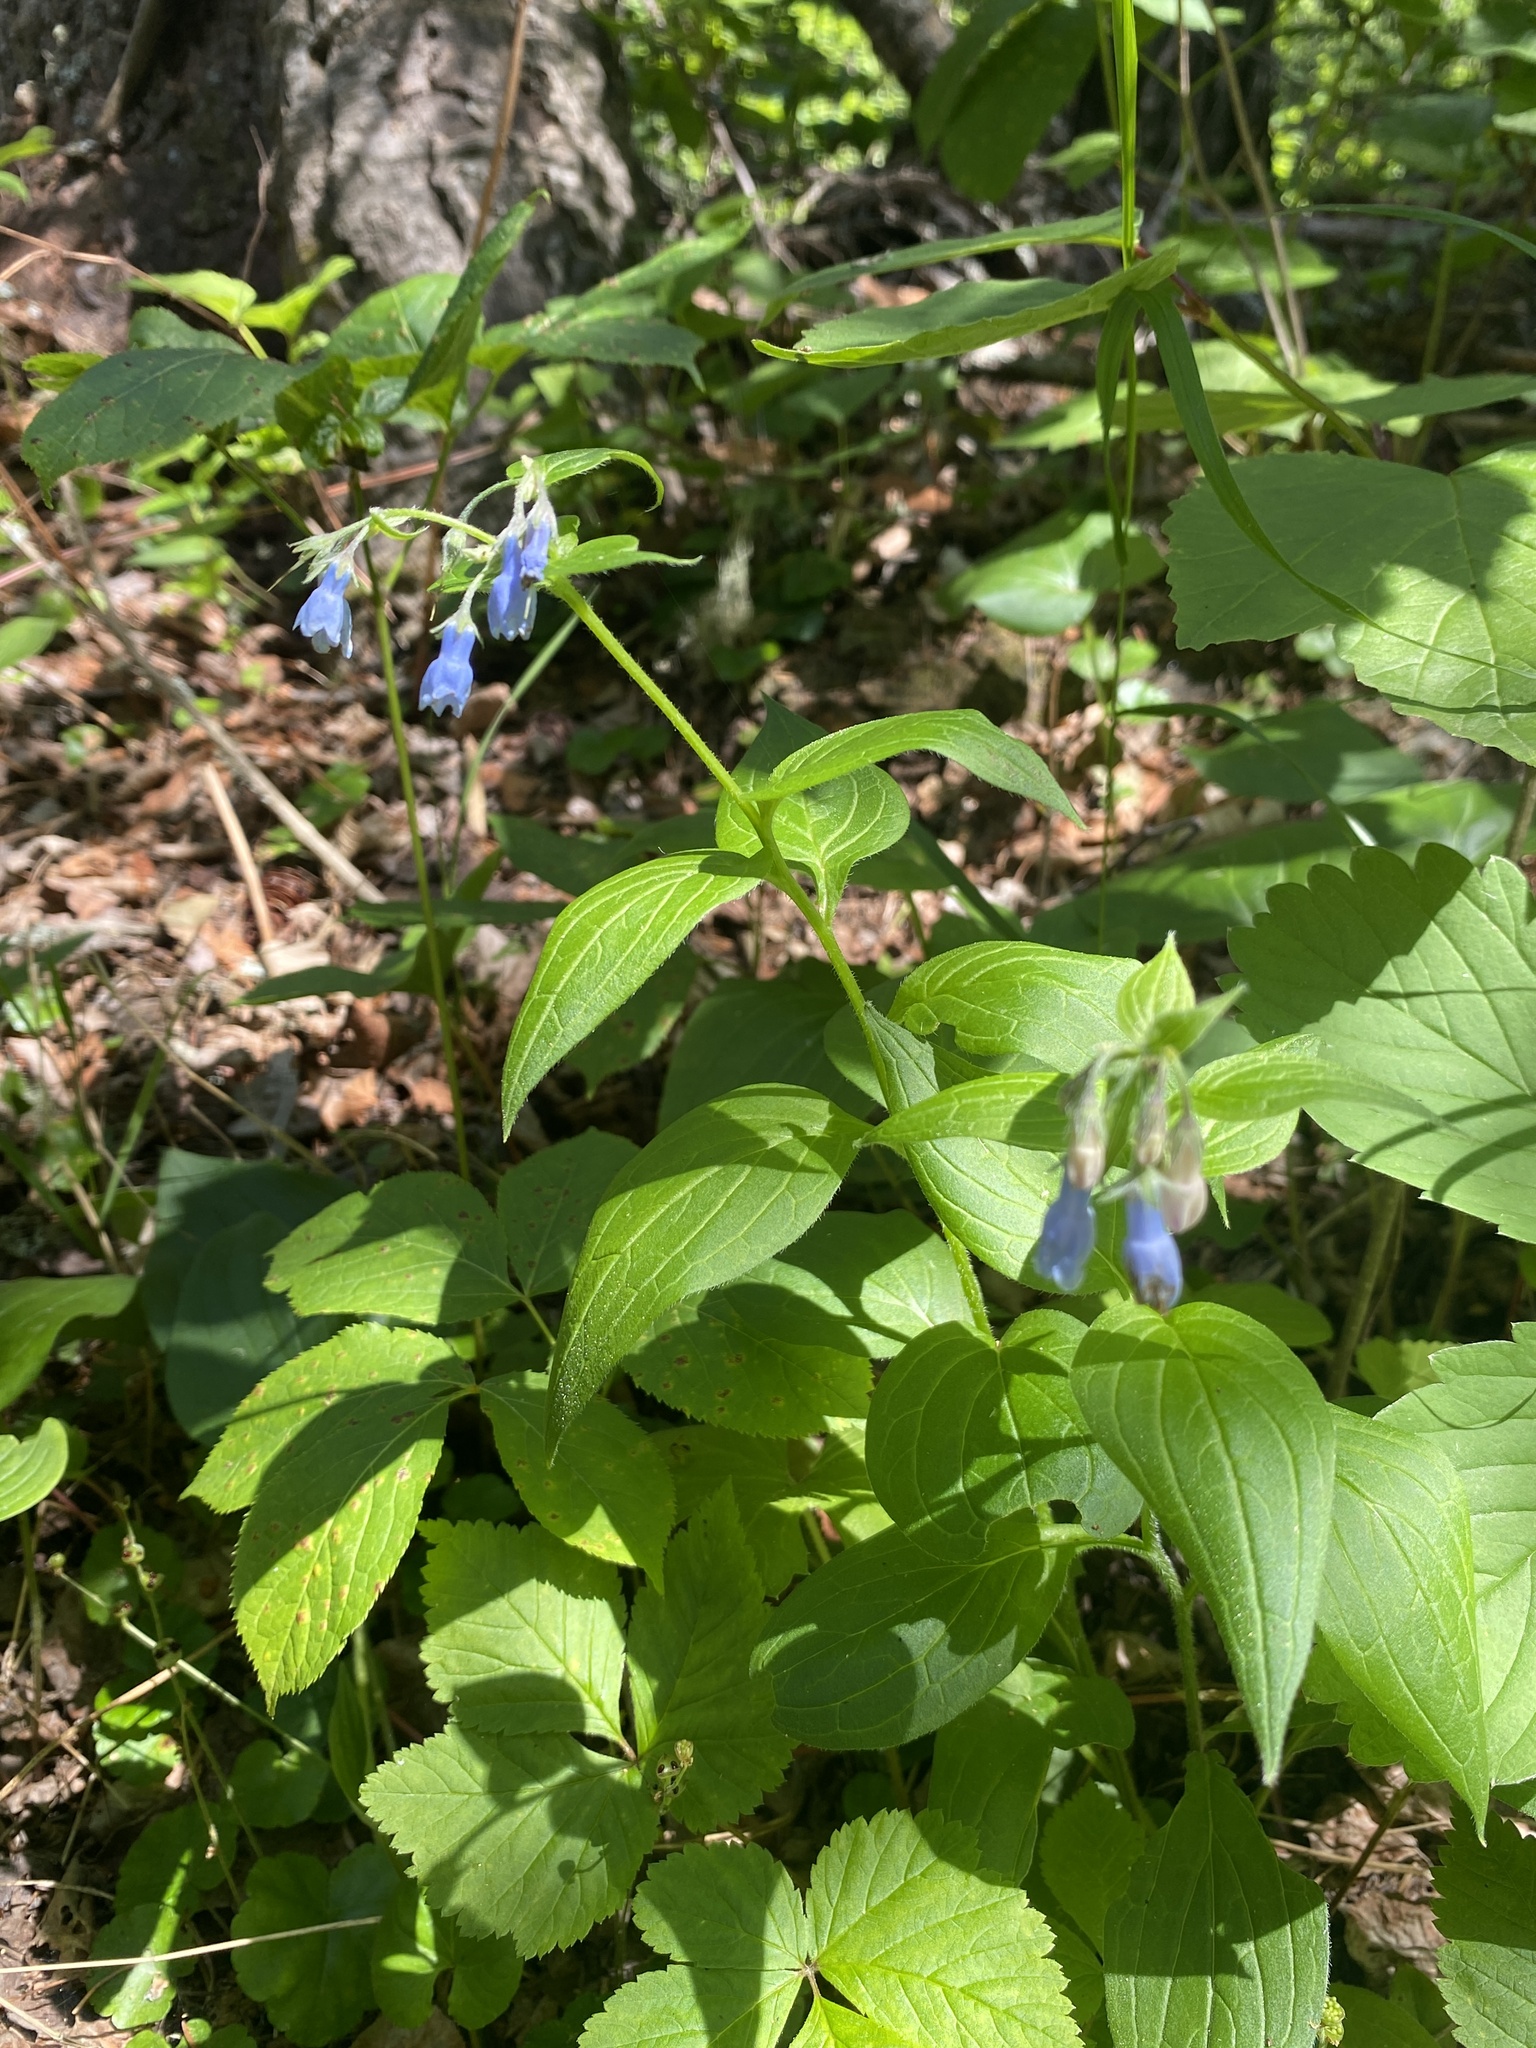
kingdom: Plantae
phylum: Tracheophyta
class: Magnoliopsida
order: Boraginales
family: Boraginaceae
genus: Mertensia
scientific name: Mertensia paniculata
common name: Panicled bluebells
